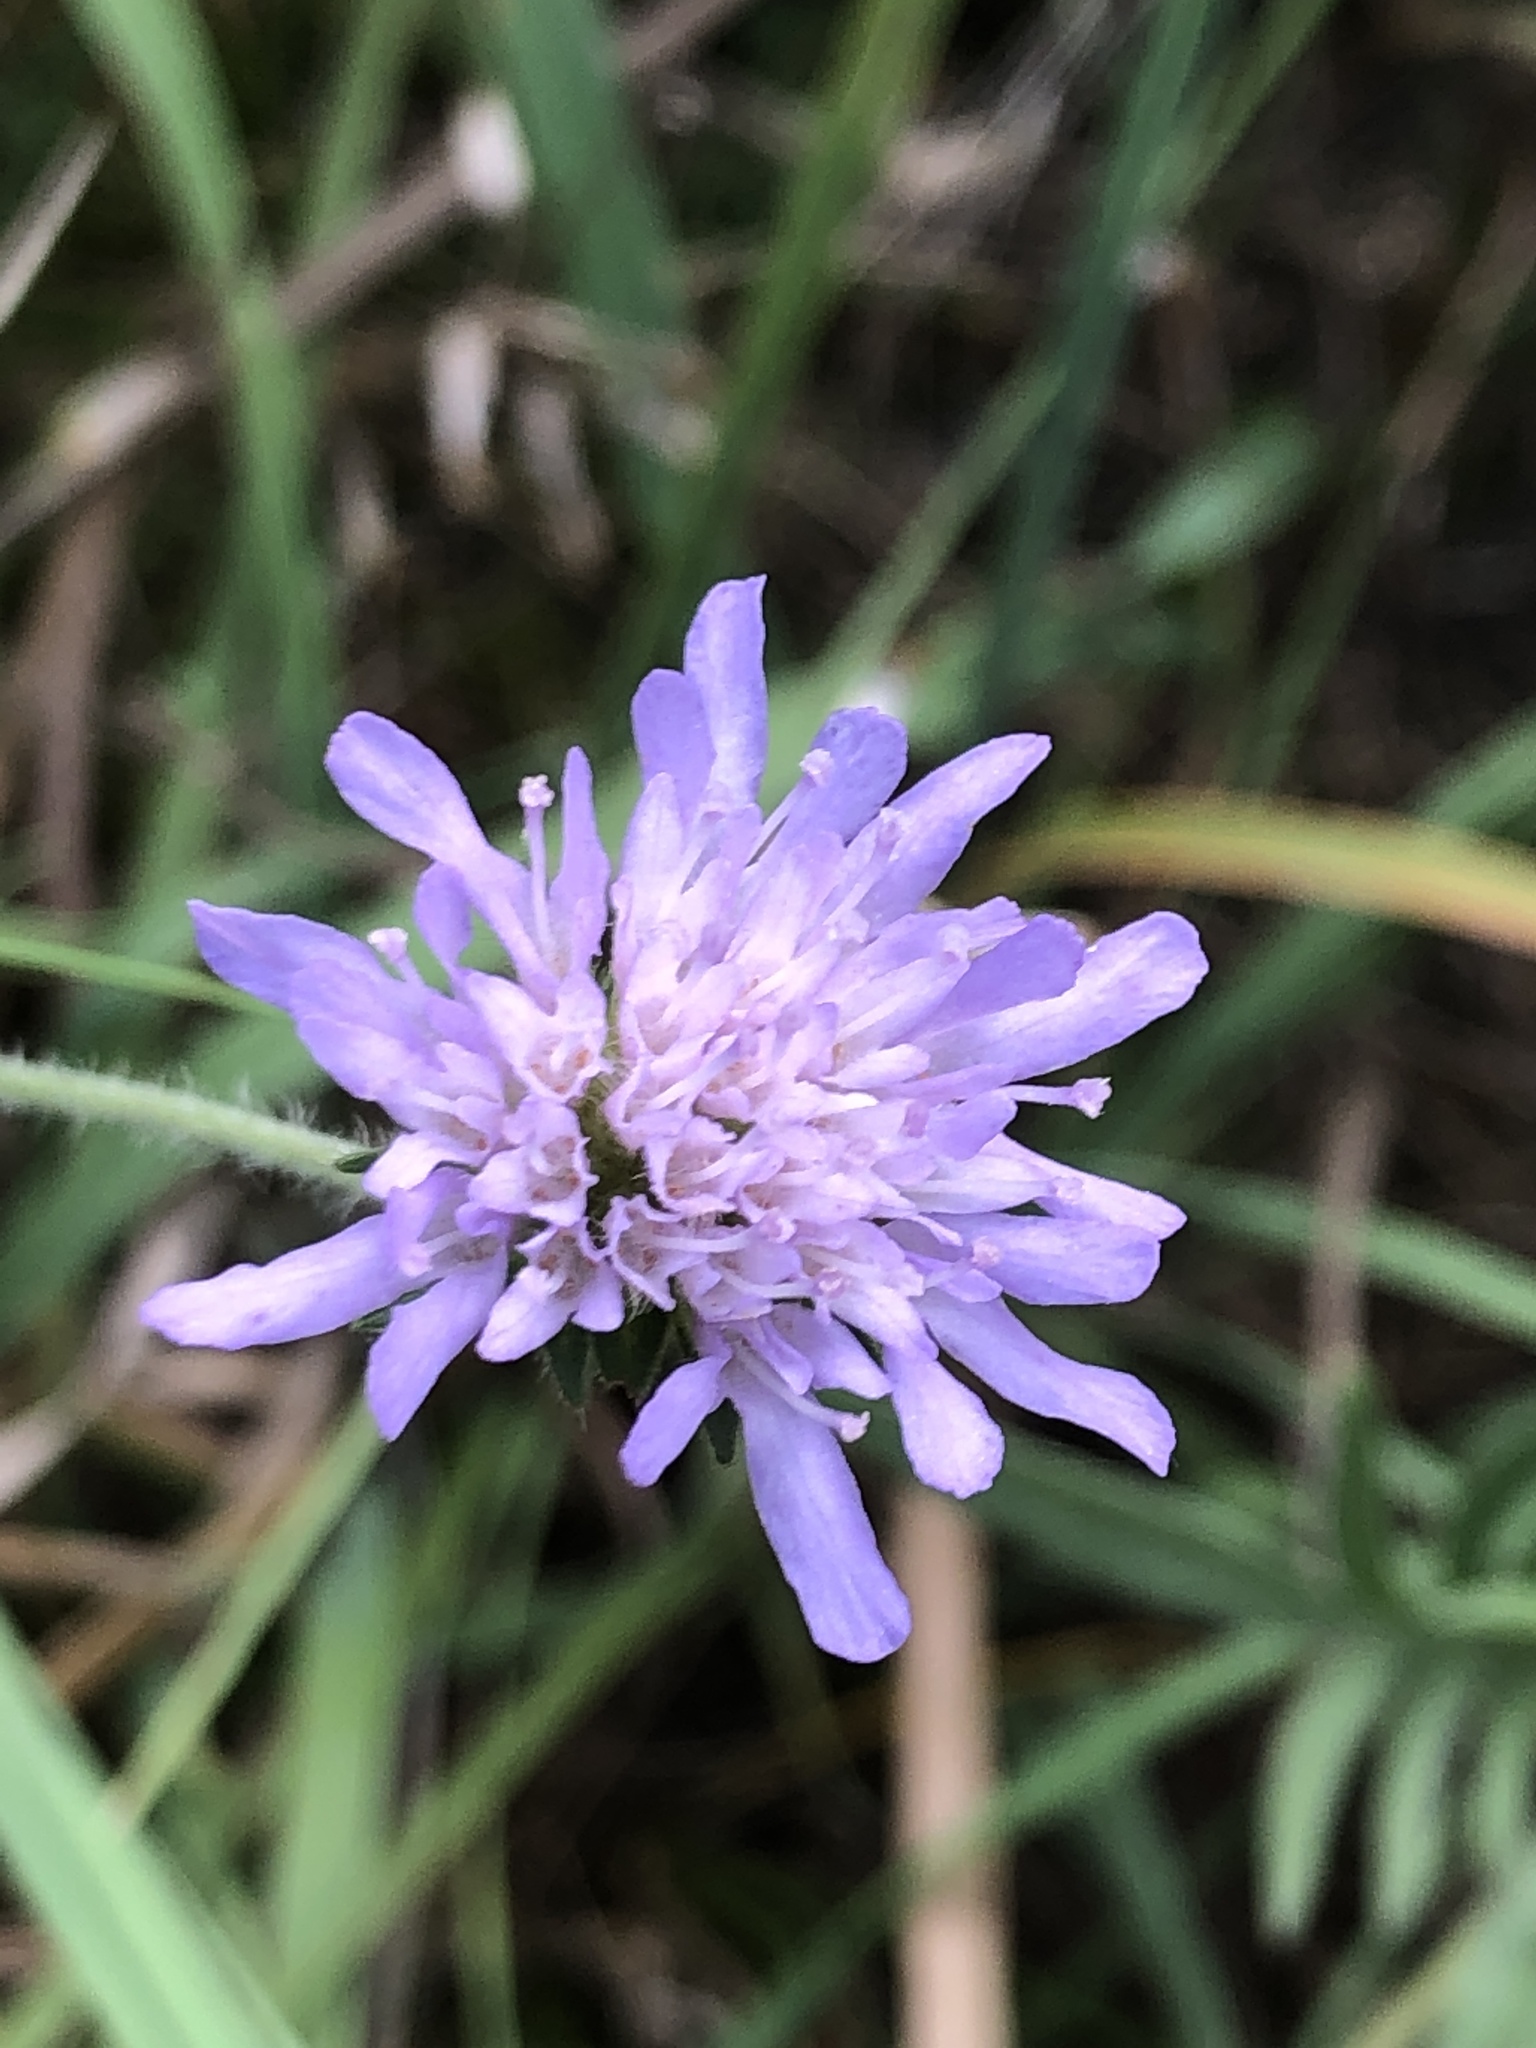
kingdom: Plantae
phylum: Tracheophyta
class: Magnoliopsida
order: Dipsacales
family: Caprifoliaceae
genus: Knautia
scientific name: Knautia arvensis
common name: Field scabiosa
